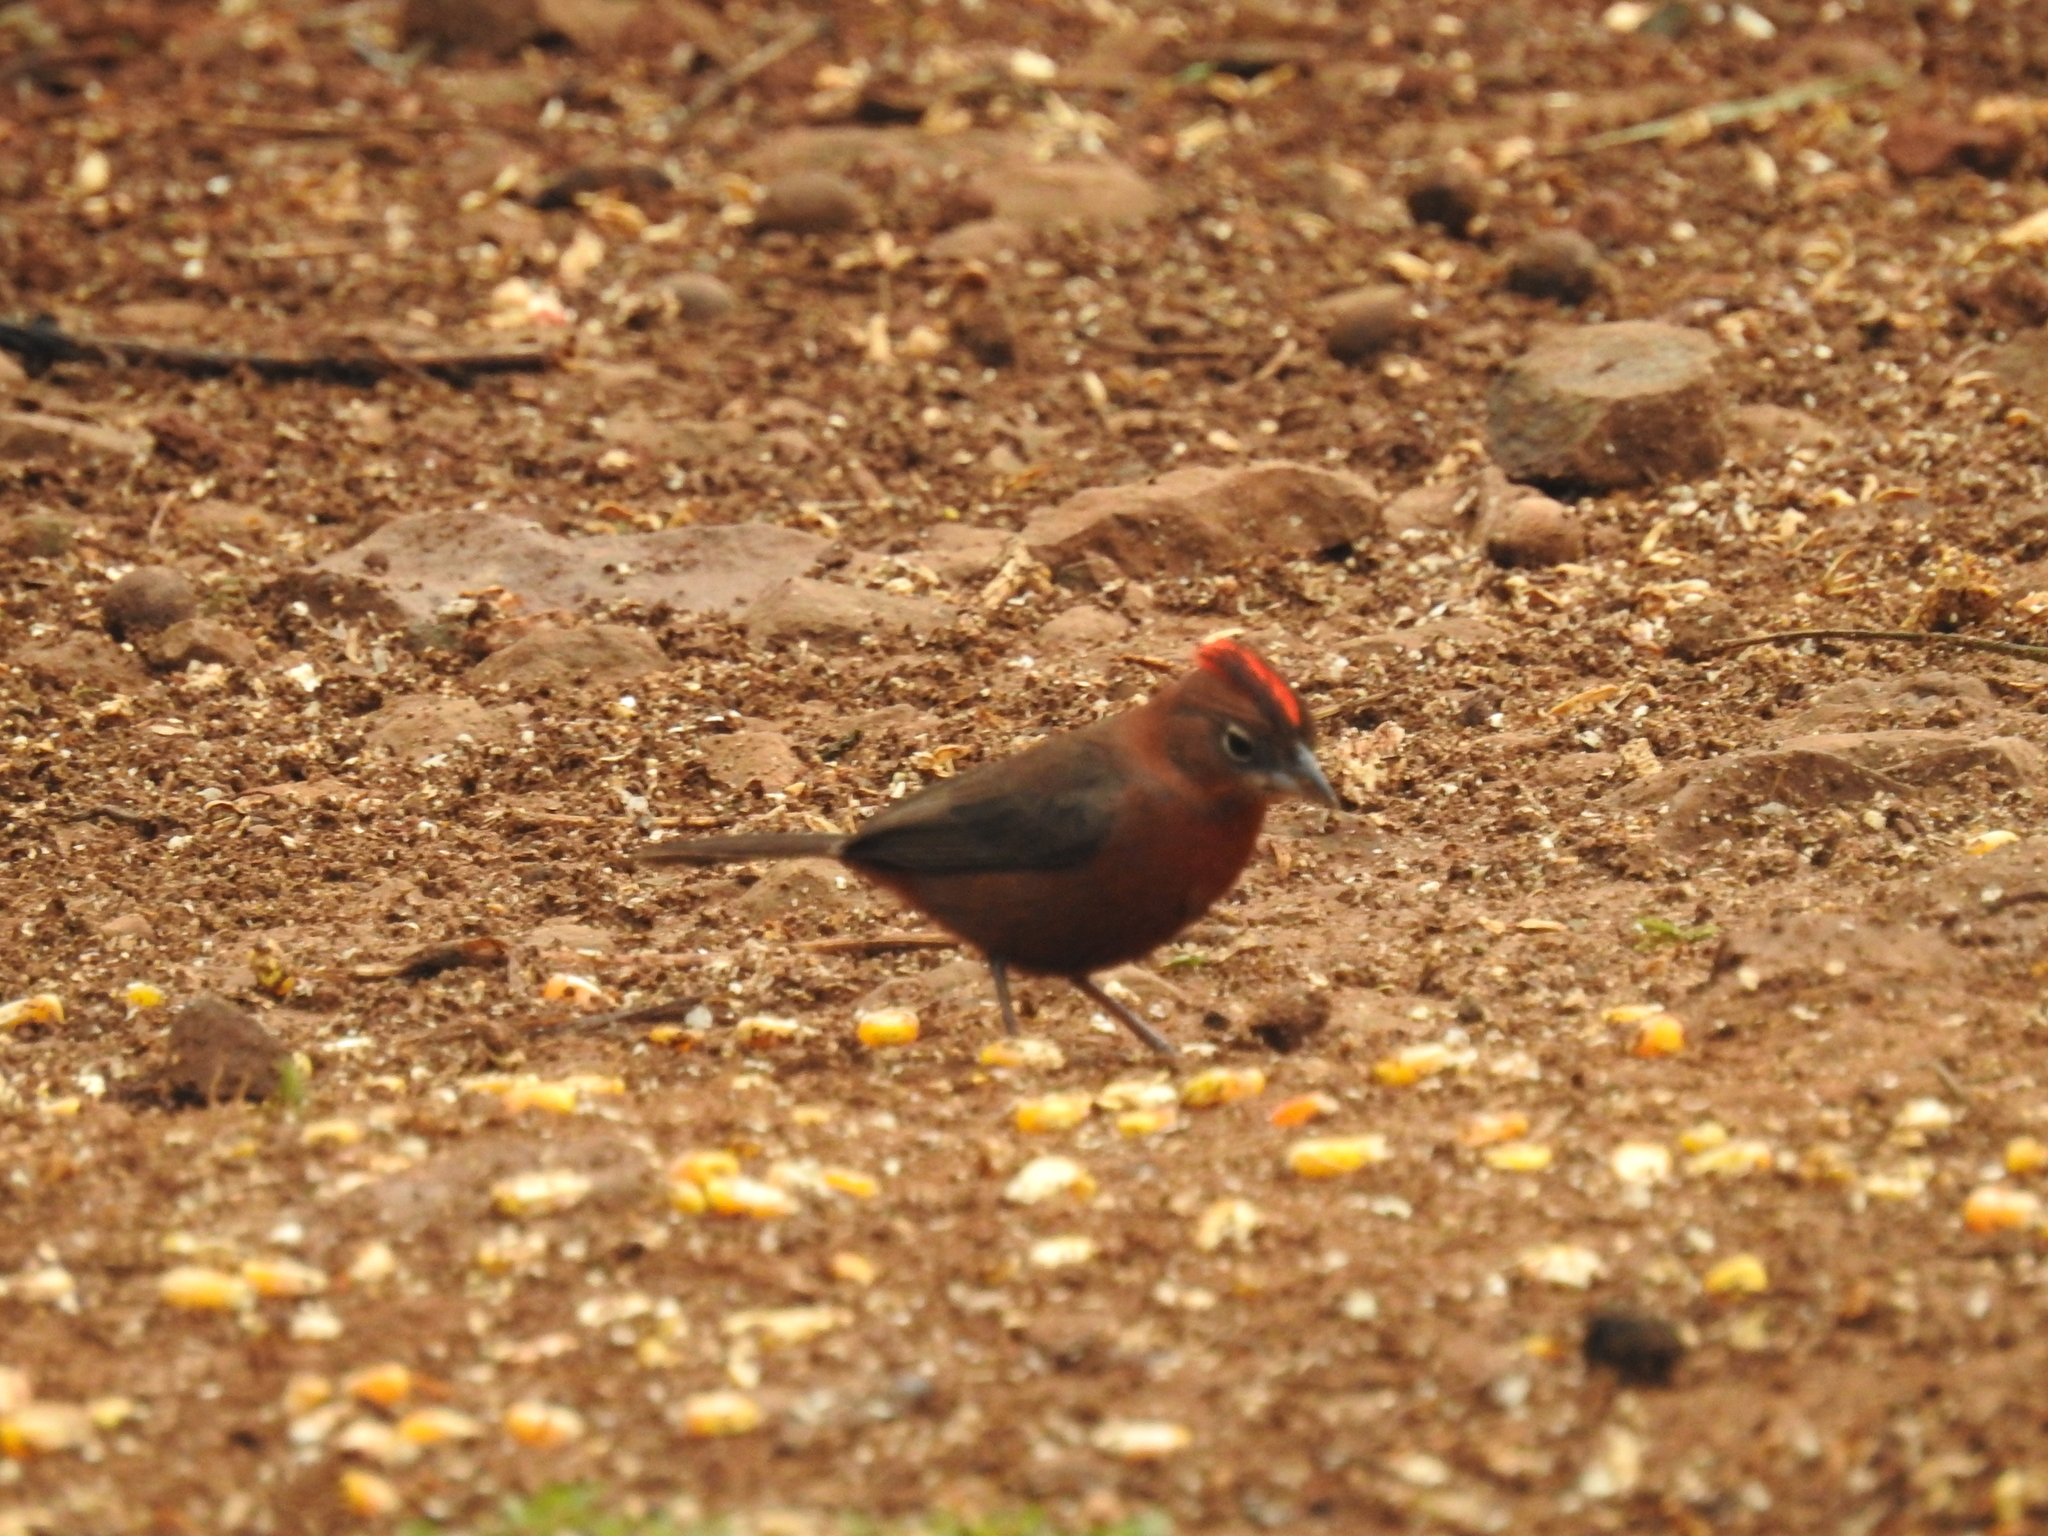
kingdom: Animalia
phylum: Chordata
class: Aves
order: Passeriformes
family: Thraupidae
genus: Coryphospingus
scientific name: Coryphospingus cucullatus
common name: Red pileated finch
